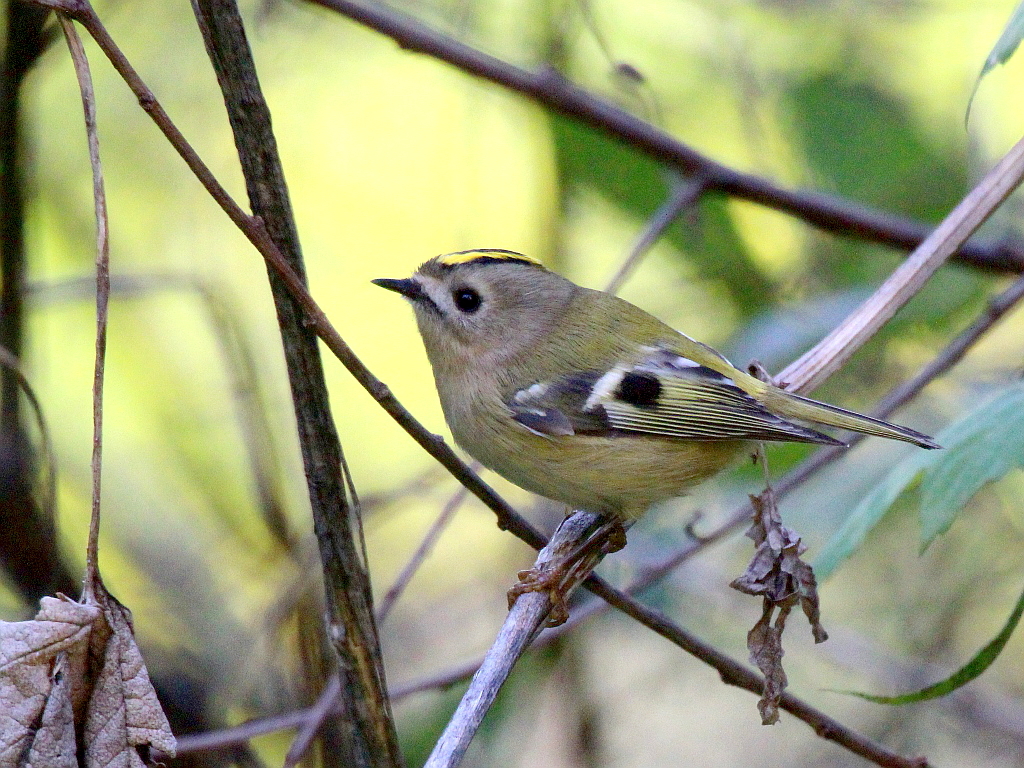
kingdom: Animalia
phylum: Chordata
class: Aves
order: Passeriformes
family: Regulidae
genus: Regulus
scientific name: Regulus regulus
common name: Goldcrest
